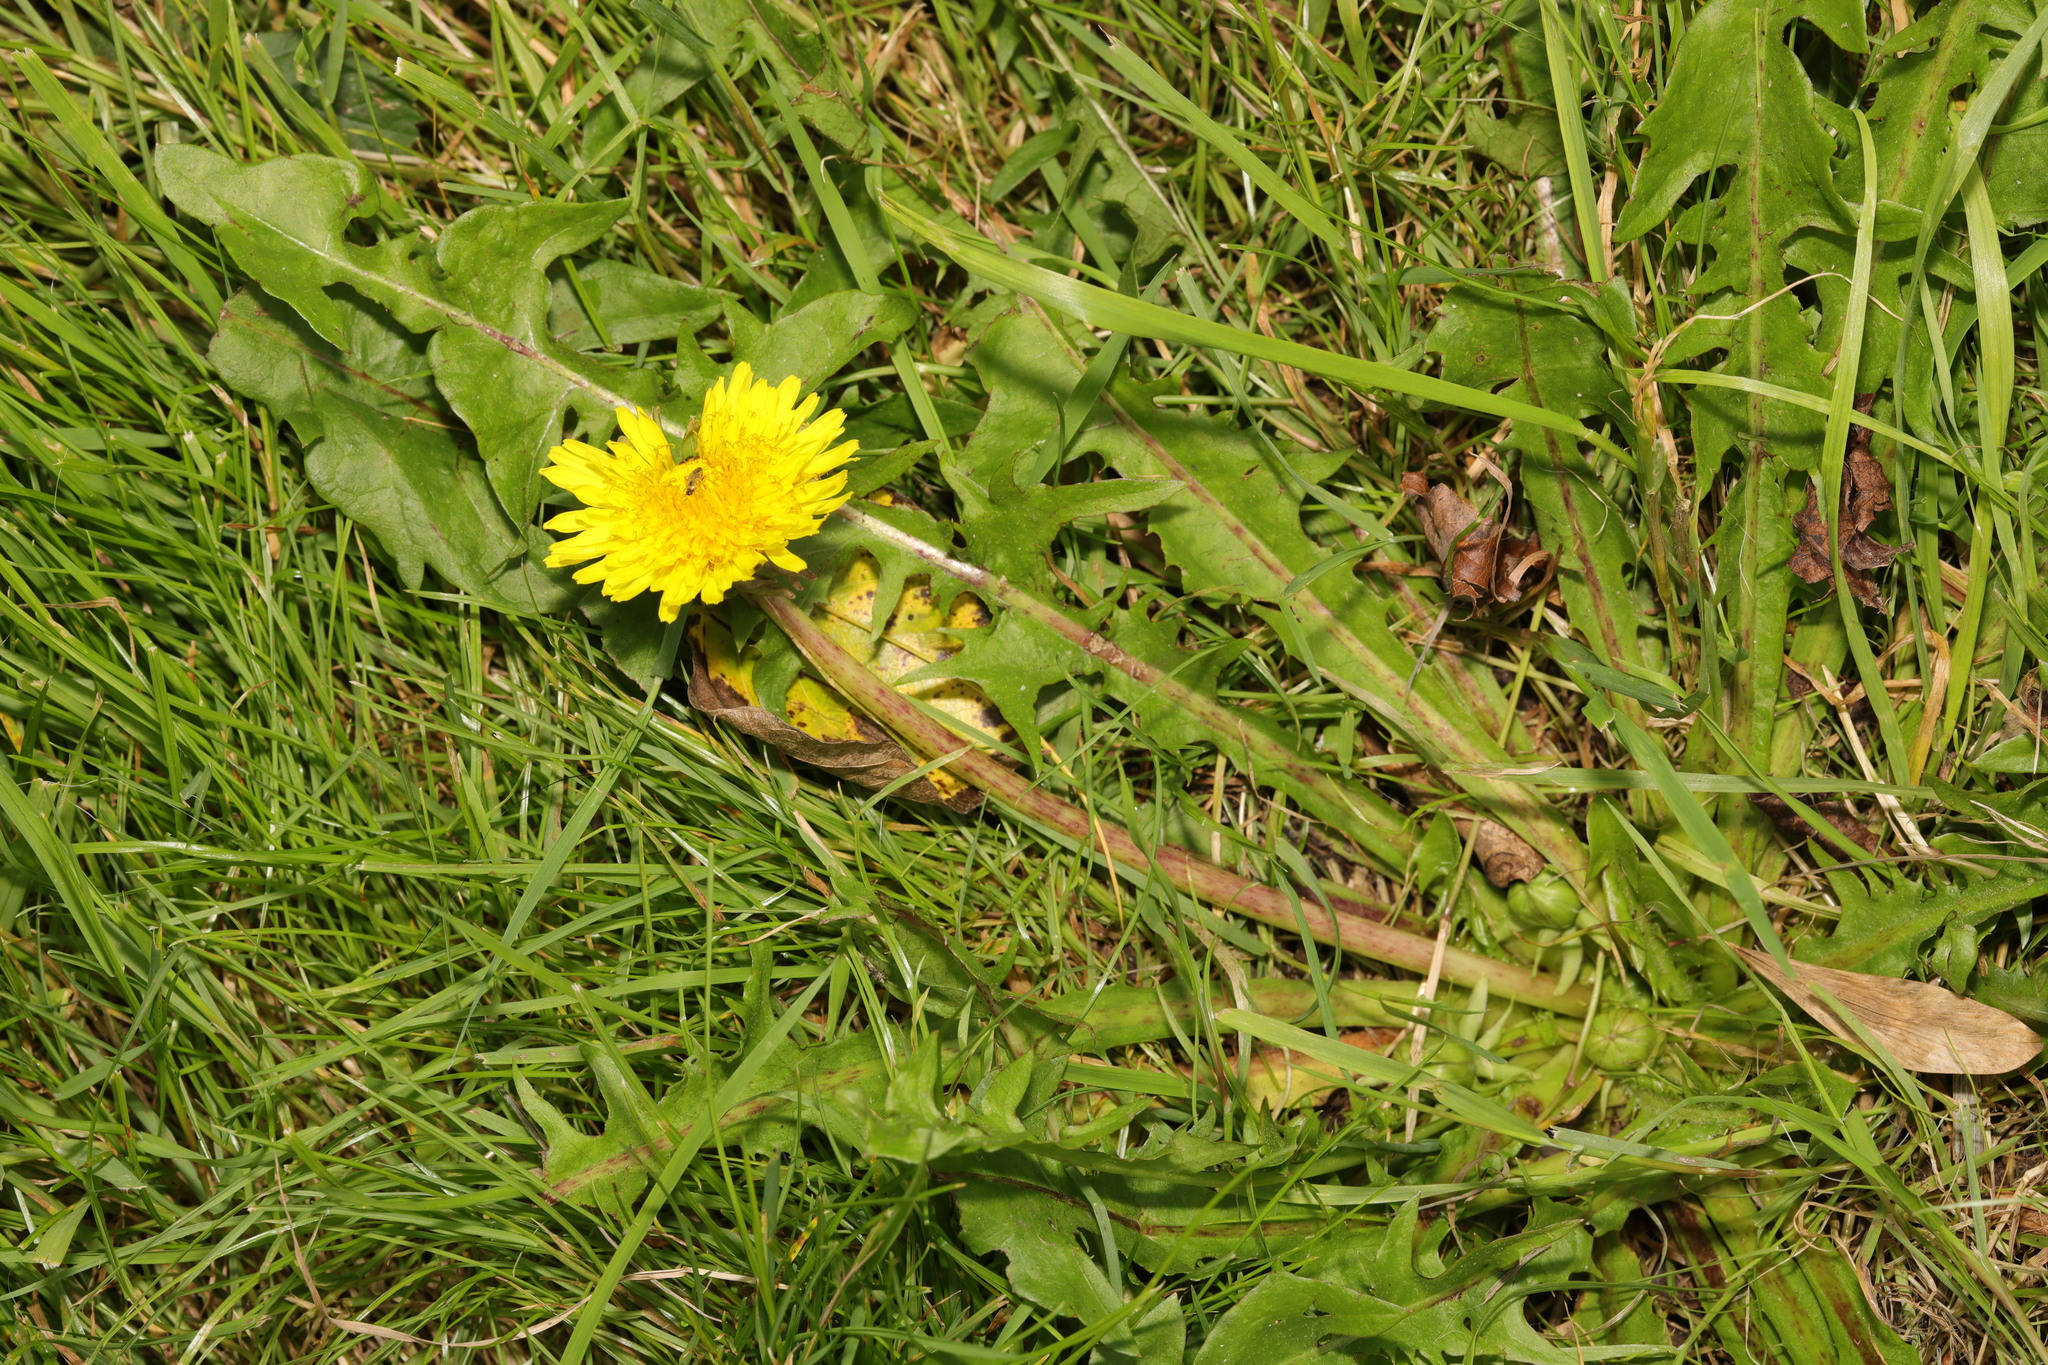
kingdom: Plantae
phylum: Tracheophyta
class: Magnoliopsida
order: Asterales
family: Asteraceae
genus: Taraxacum
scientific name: Taraxacum officinale
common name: Common dandelion
